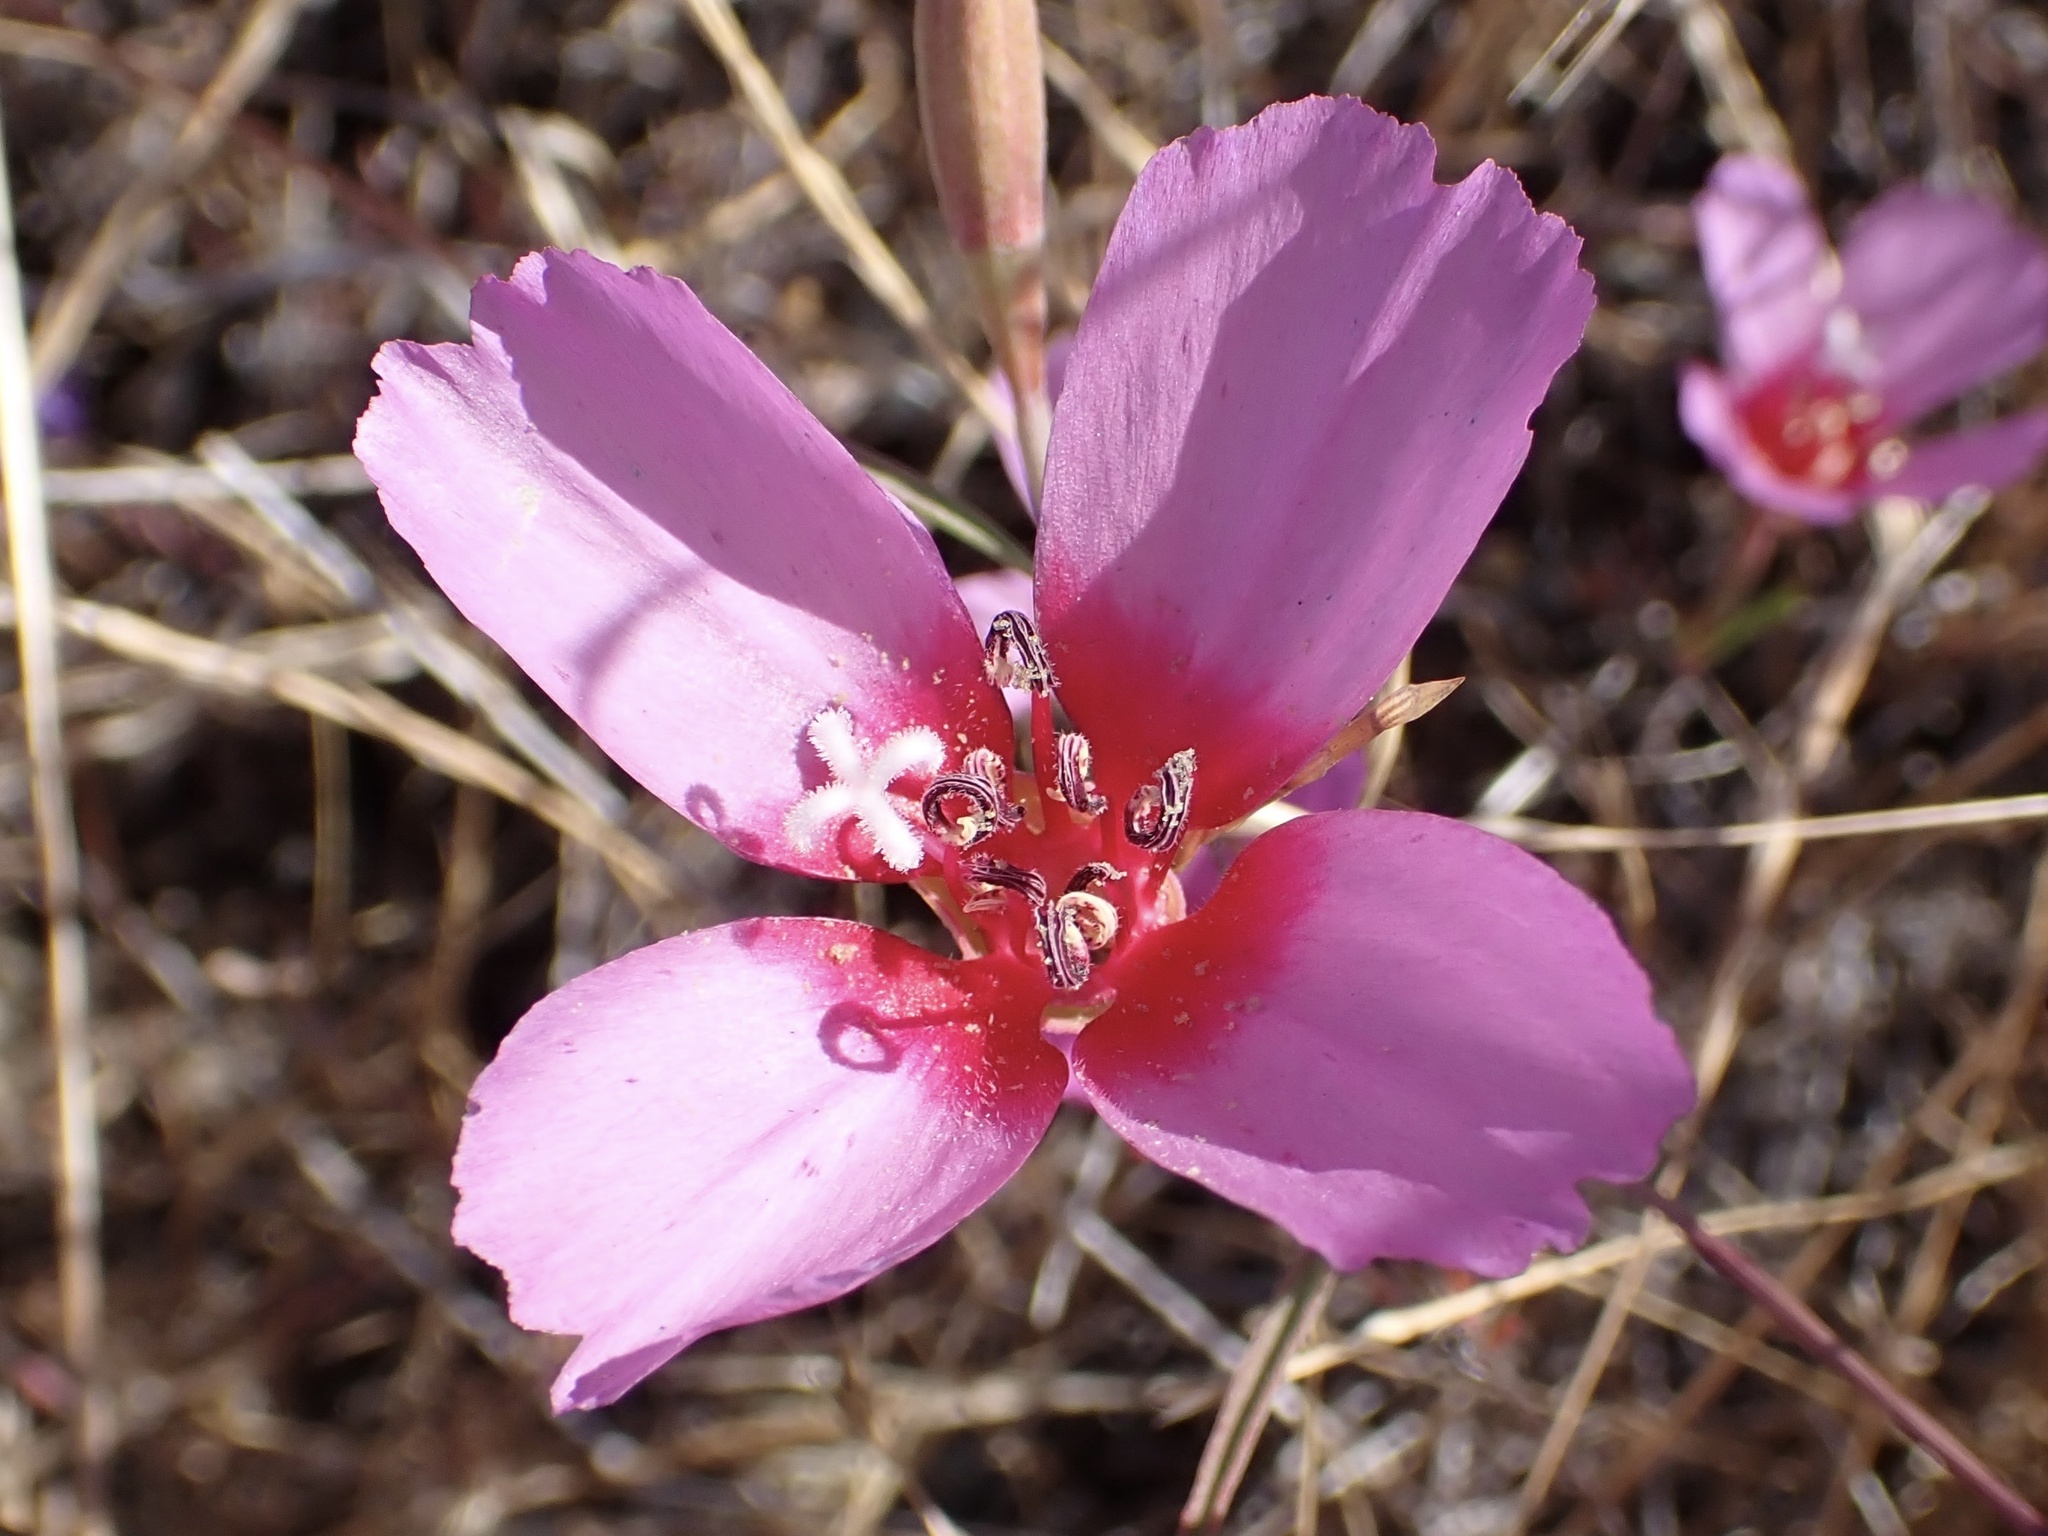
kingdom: Plantae
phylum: Tracheophyta
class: Magnoliopsida
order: Myrtales
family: Onagraceae
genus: Clarkia
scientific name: Clarkia rubicunda
